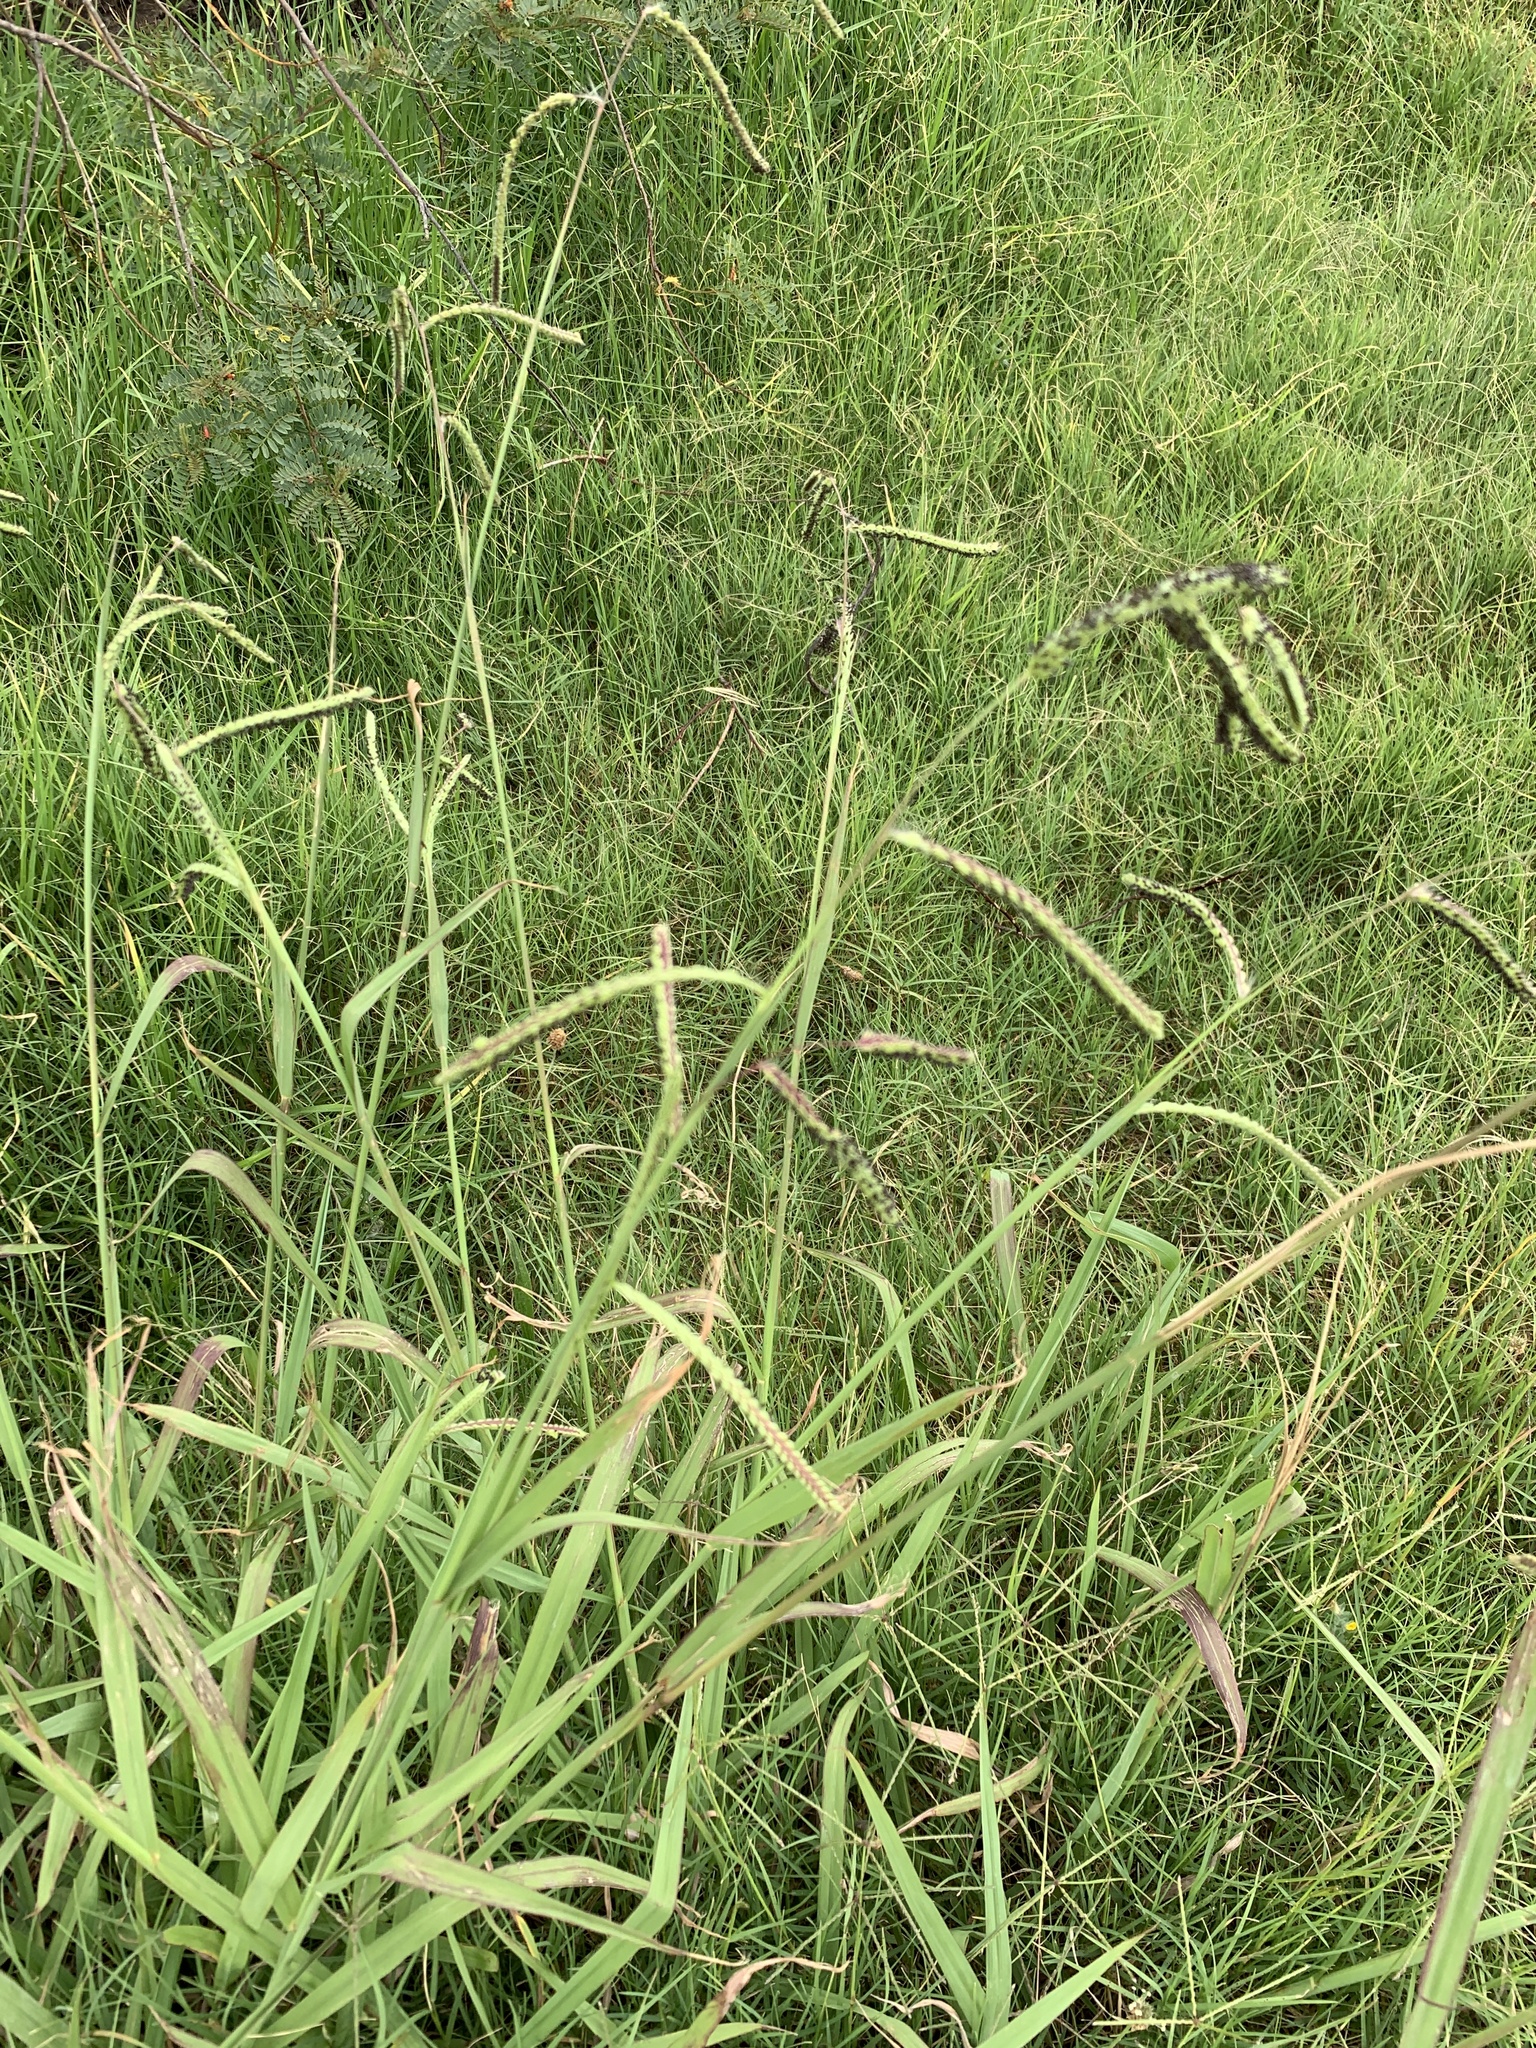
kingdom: Plantae
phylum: Tracheophyta
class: Liliopsida
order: Poales
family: Poaceae
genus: Paspalum
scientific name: Paspalum dilatatum
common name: Dallisgrass
